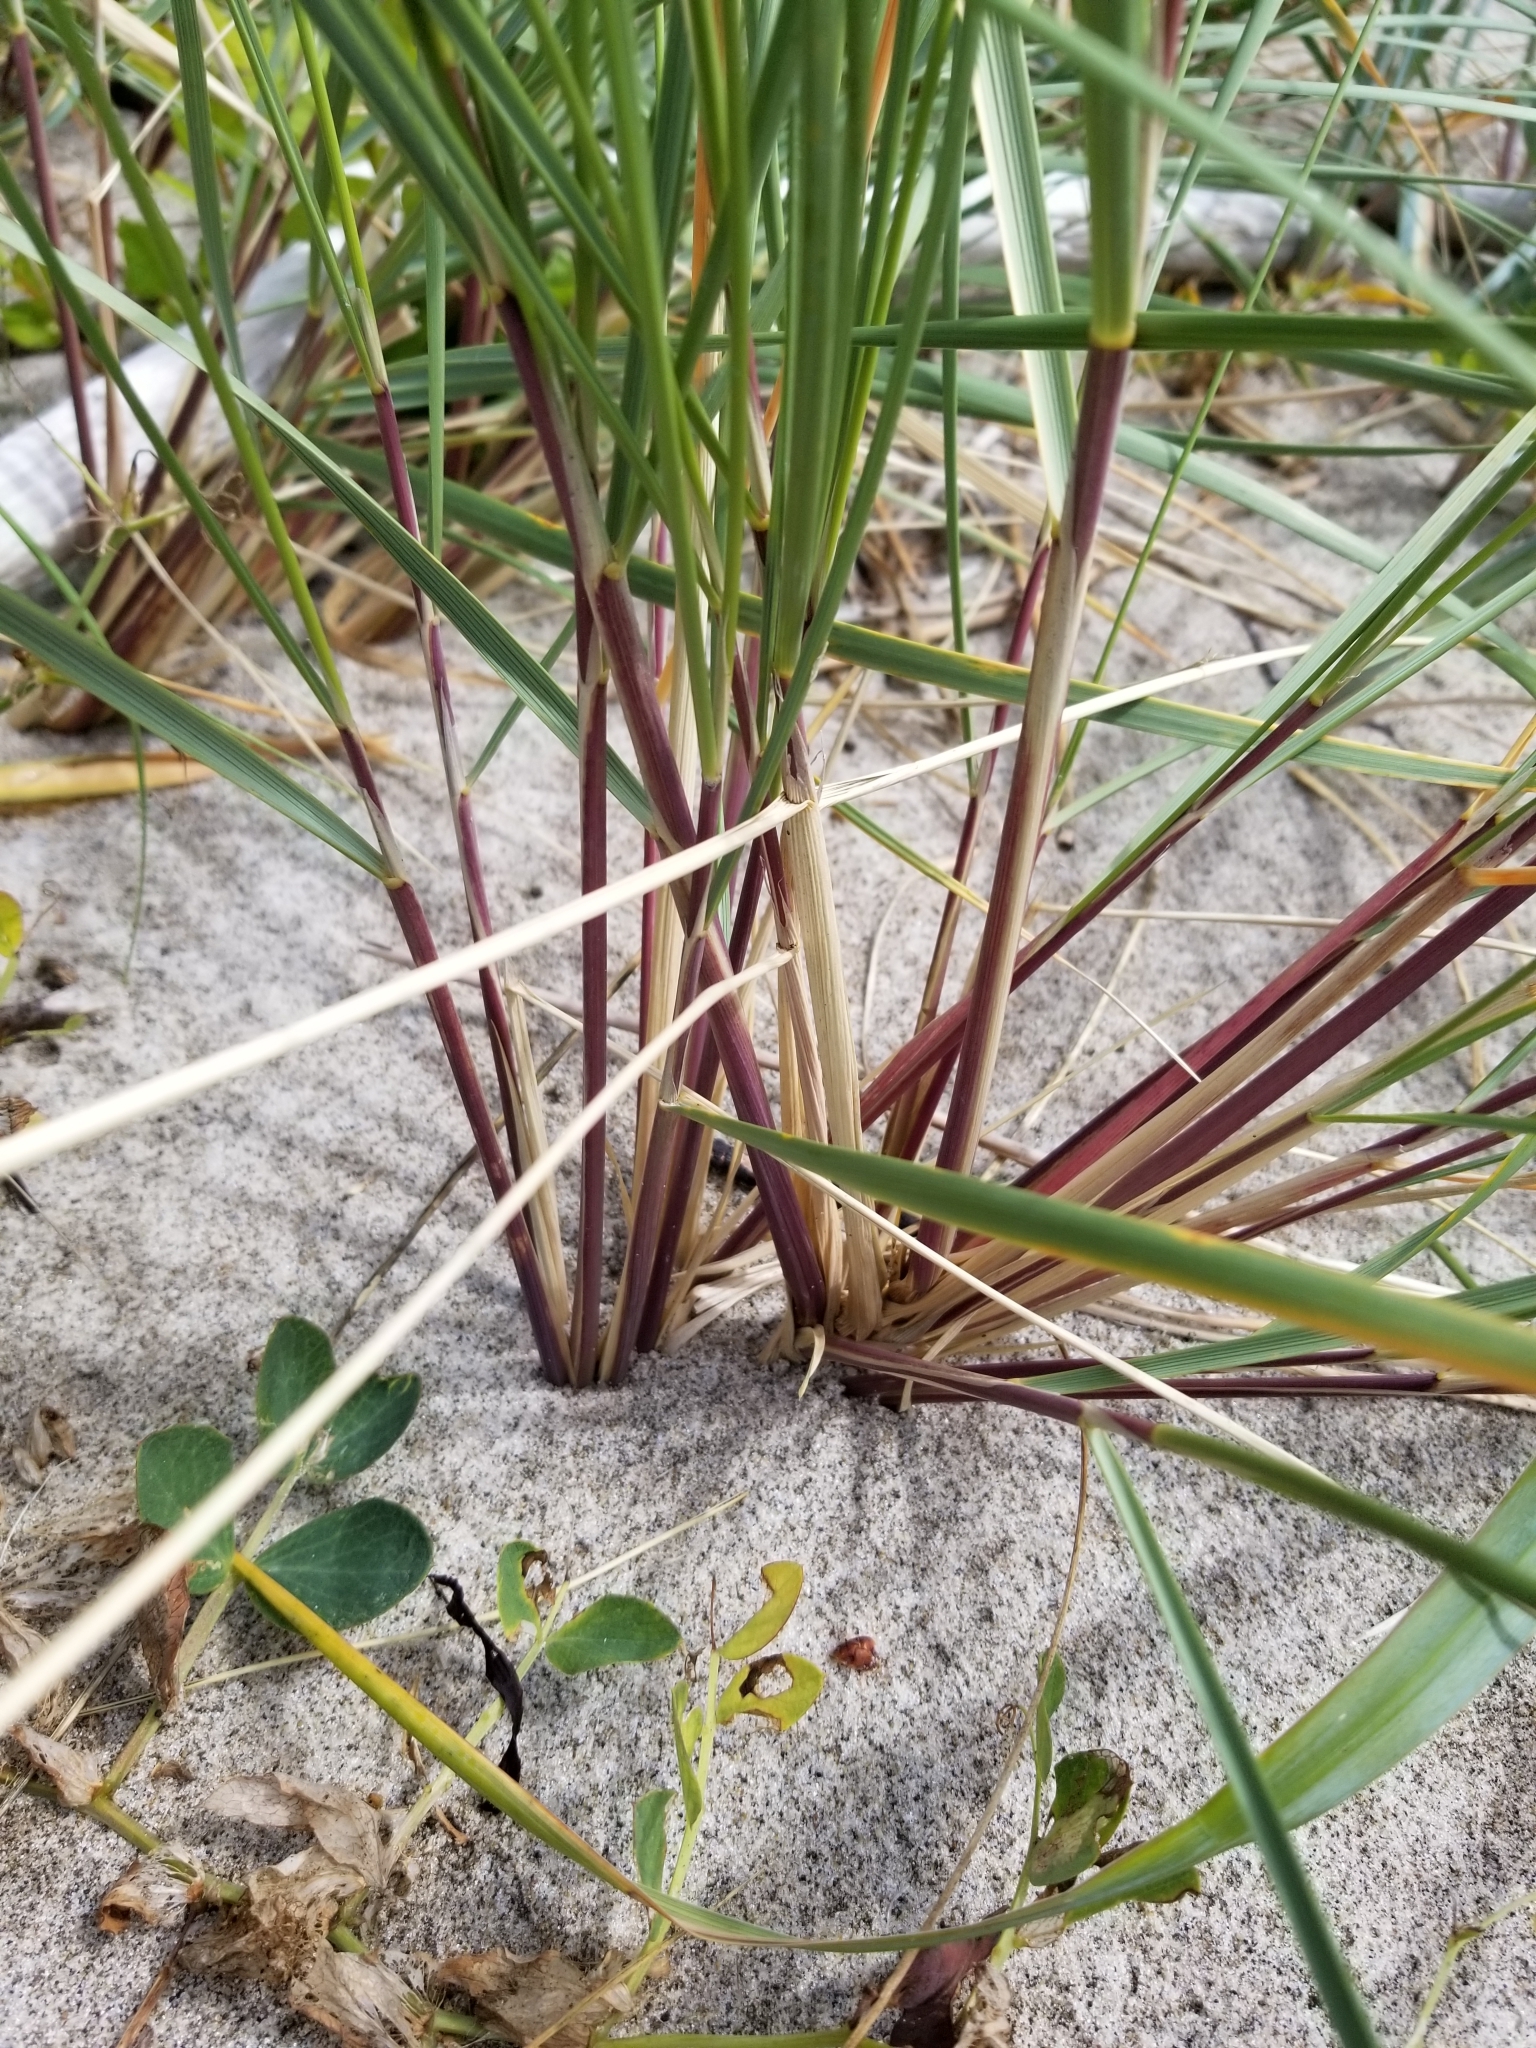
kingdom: Plantae
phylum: Tracheophyta
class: Liliopsida
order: Poales
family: Poaceae
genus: Calamagrostis
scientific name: Calamagrostis arenaria
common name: European beachgrass
